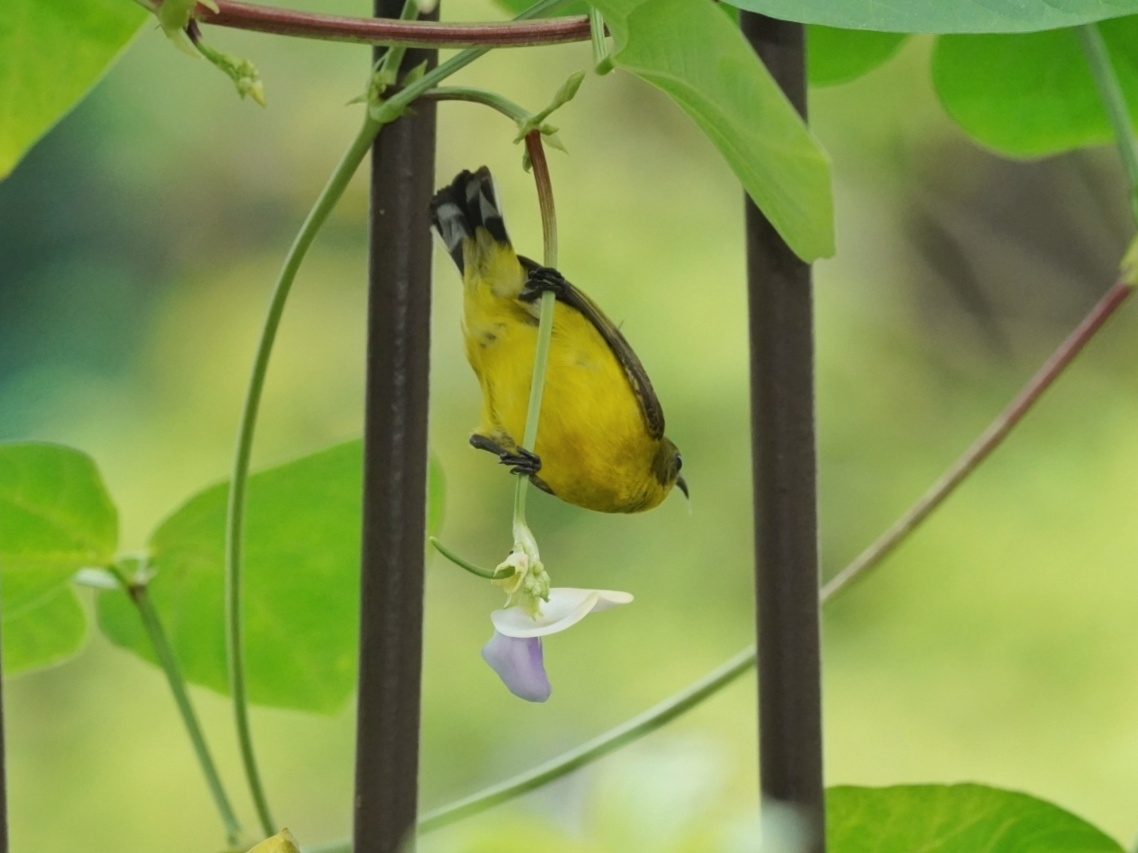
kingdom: Animalia
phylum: Chordata
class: Aves
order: Passeriformes
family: Nectariniidae
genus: Cinnyris
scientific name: Cinnyris
